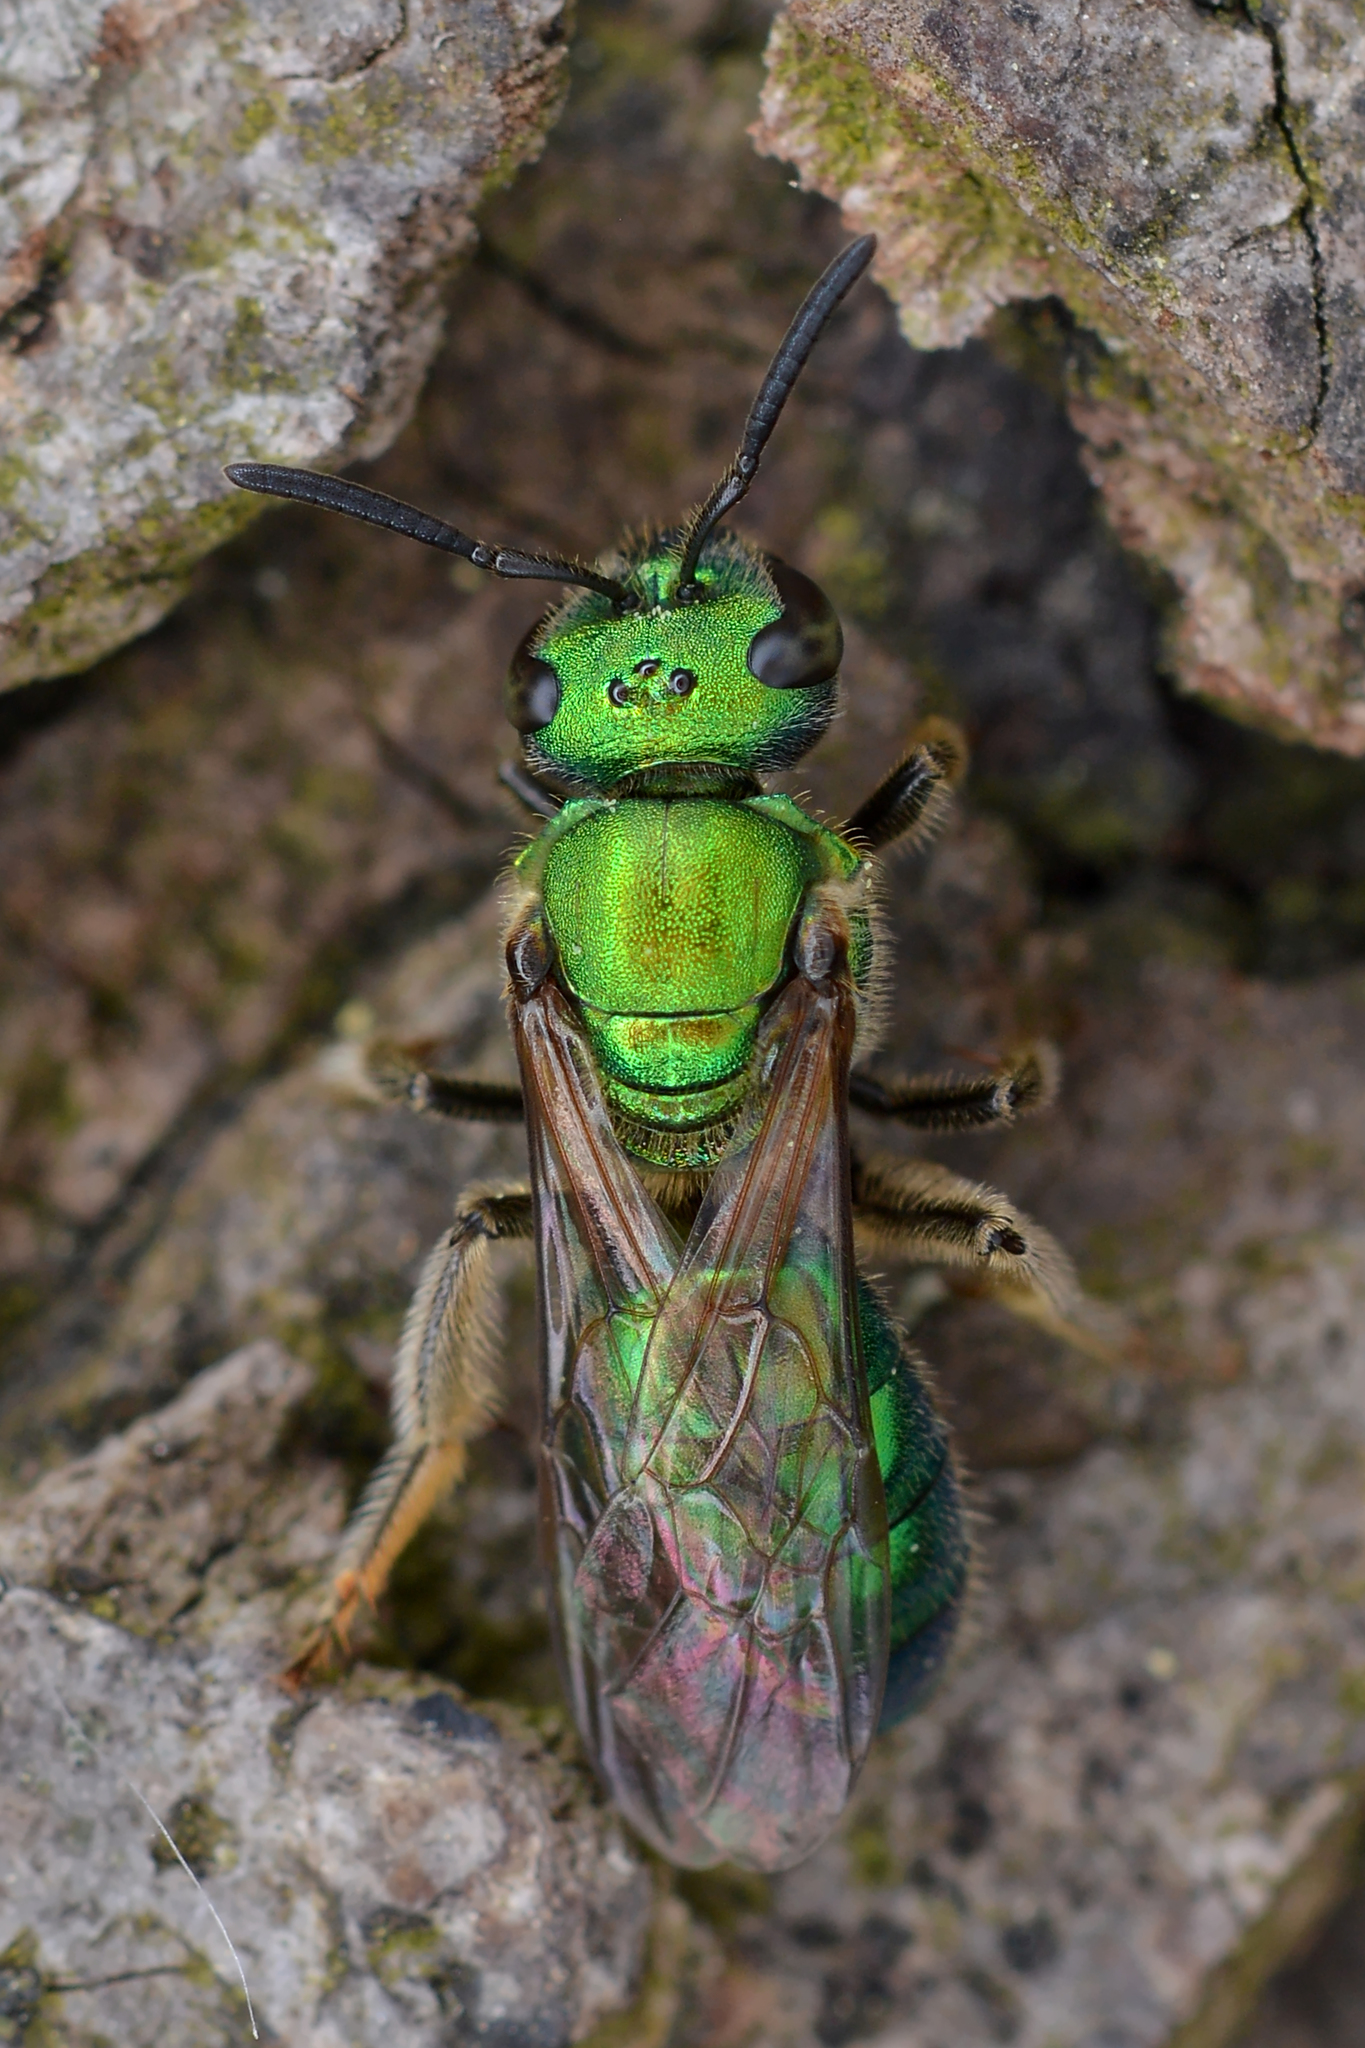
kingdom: Animalia
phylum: Arthropoda
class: Insecta
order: Hymenoptera
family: Halictidae
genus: Augochlora
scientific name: Augochlora pura
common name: Pure green sweat bee
